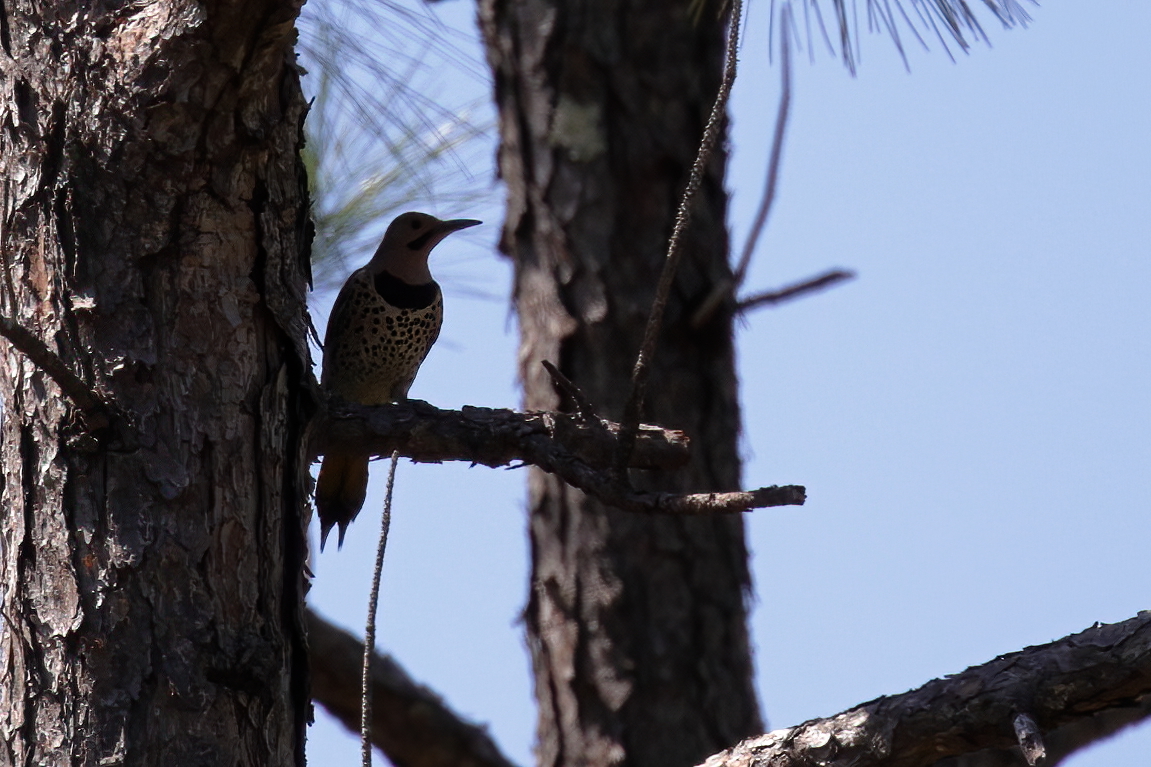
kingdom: Animalia
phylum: Chordata
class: Aves
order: Piciformes
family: Picidae
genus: Colaptes
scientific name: Colaptes auratus
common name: Northern flicker
